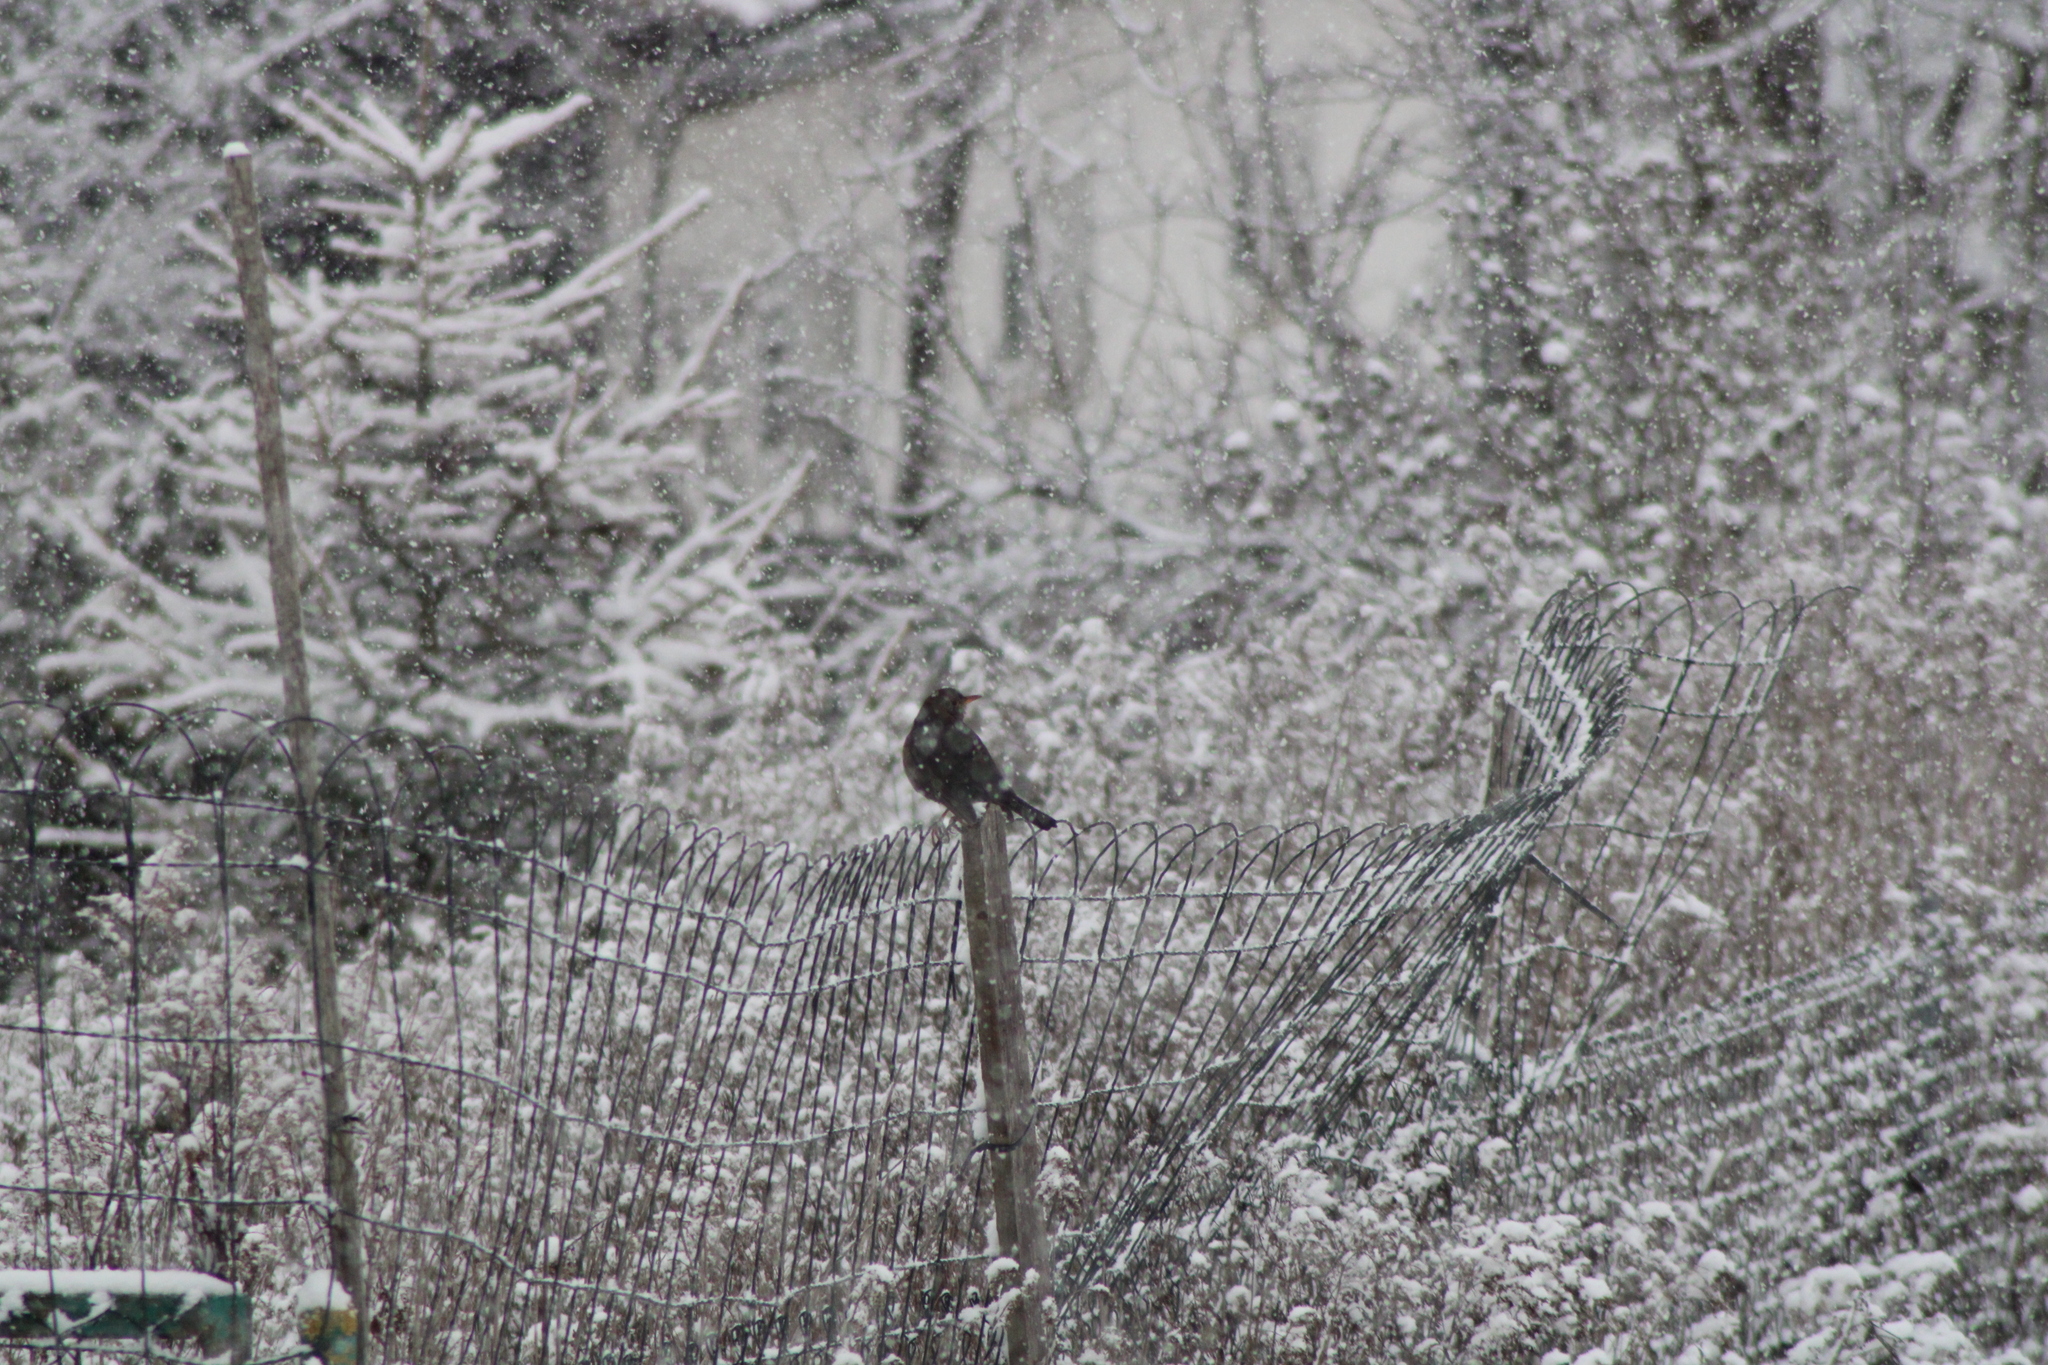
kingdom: Animalia
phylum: Chordata
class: Aves
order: Passeriformes
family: Turdidae
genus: Turdus
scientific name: Turdus merula
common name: Common blackbird
